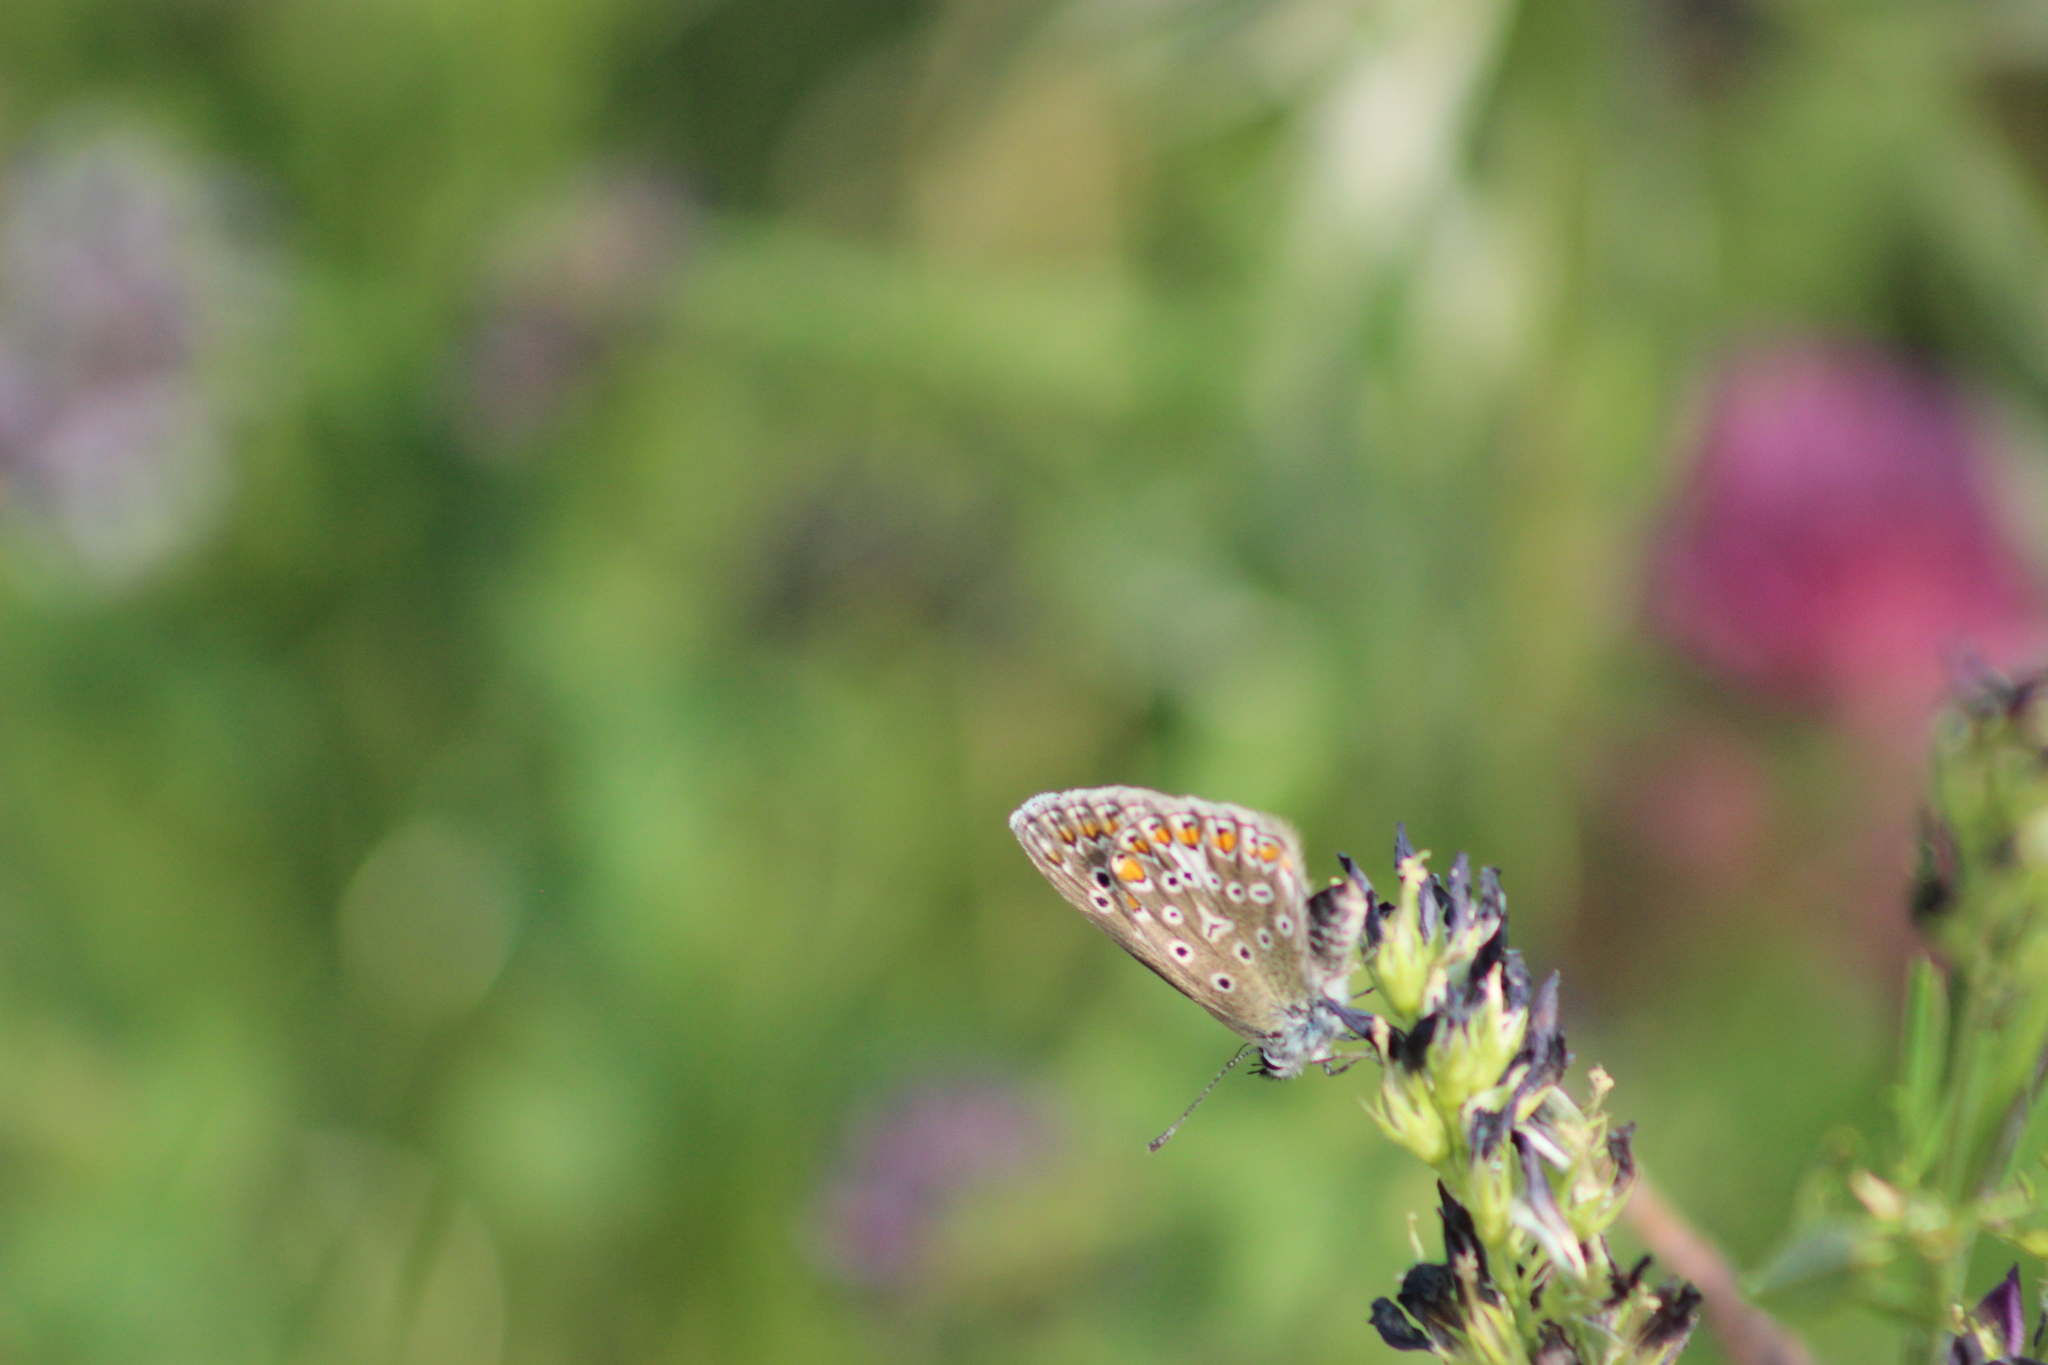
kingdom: Animalia
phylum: Arthropoda
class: Insecta
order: Lepidoptera
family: Lycaenidae
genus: Polyommatus
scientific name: Polyommatus icarus
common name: Common blue
